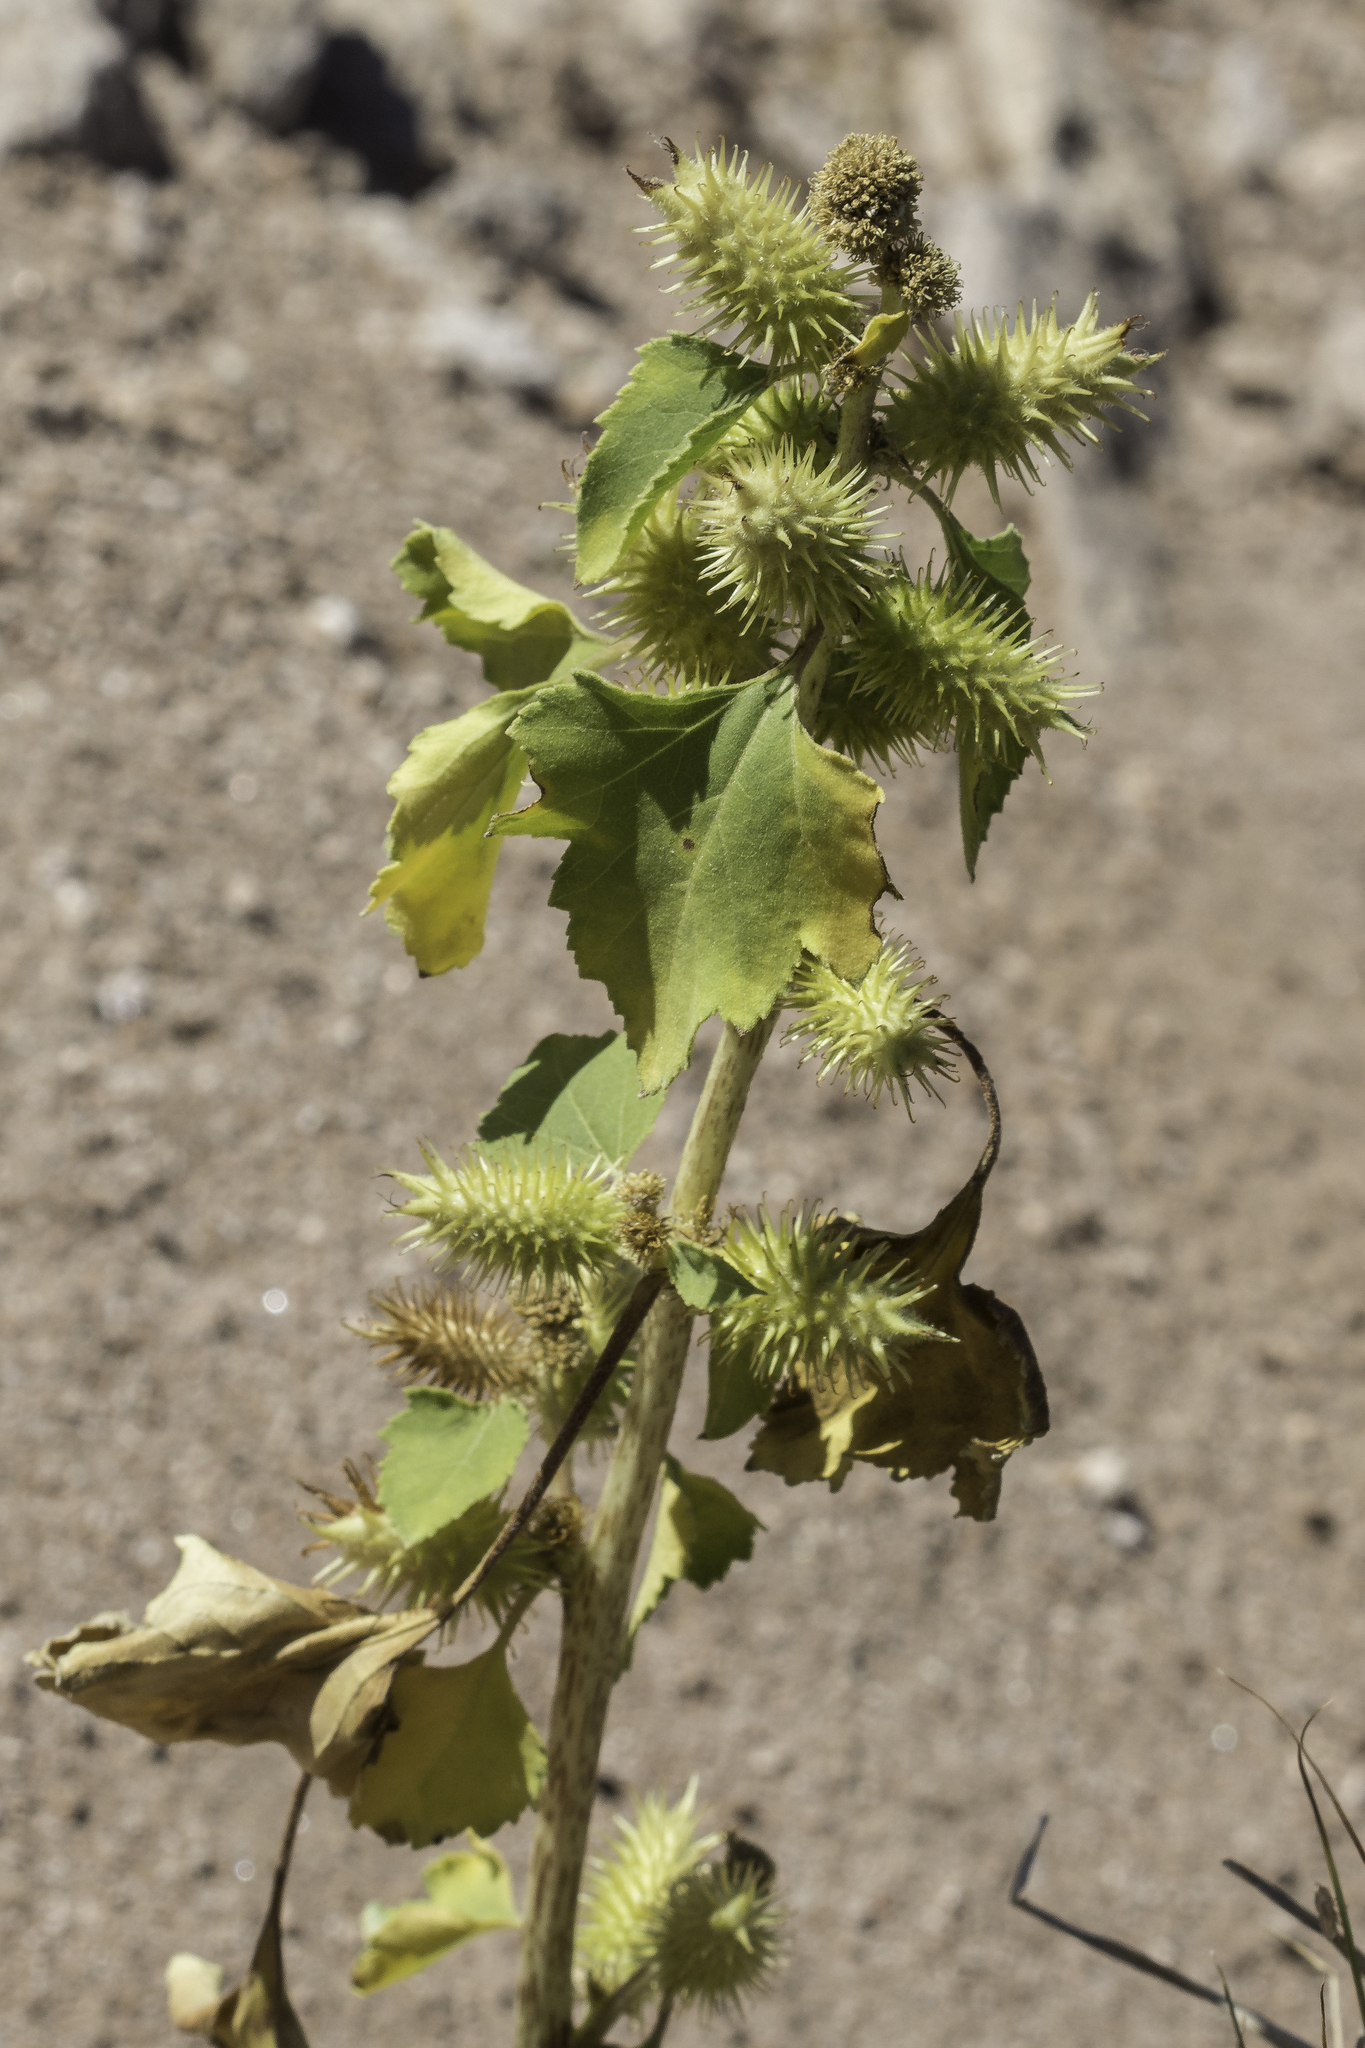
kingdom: Plantae
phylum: Tracheophyta
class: Magnoliopsida
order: Asterales
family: Asteraceae
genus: Xanthium
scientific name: Xanthium strumarium
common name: Rough cocklebur
